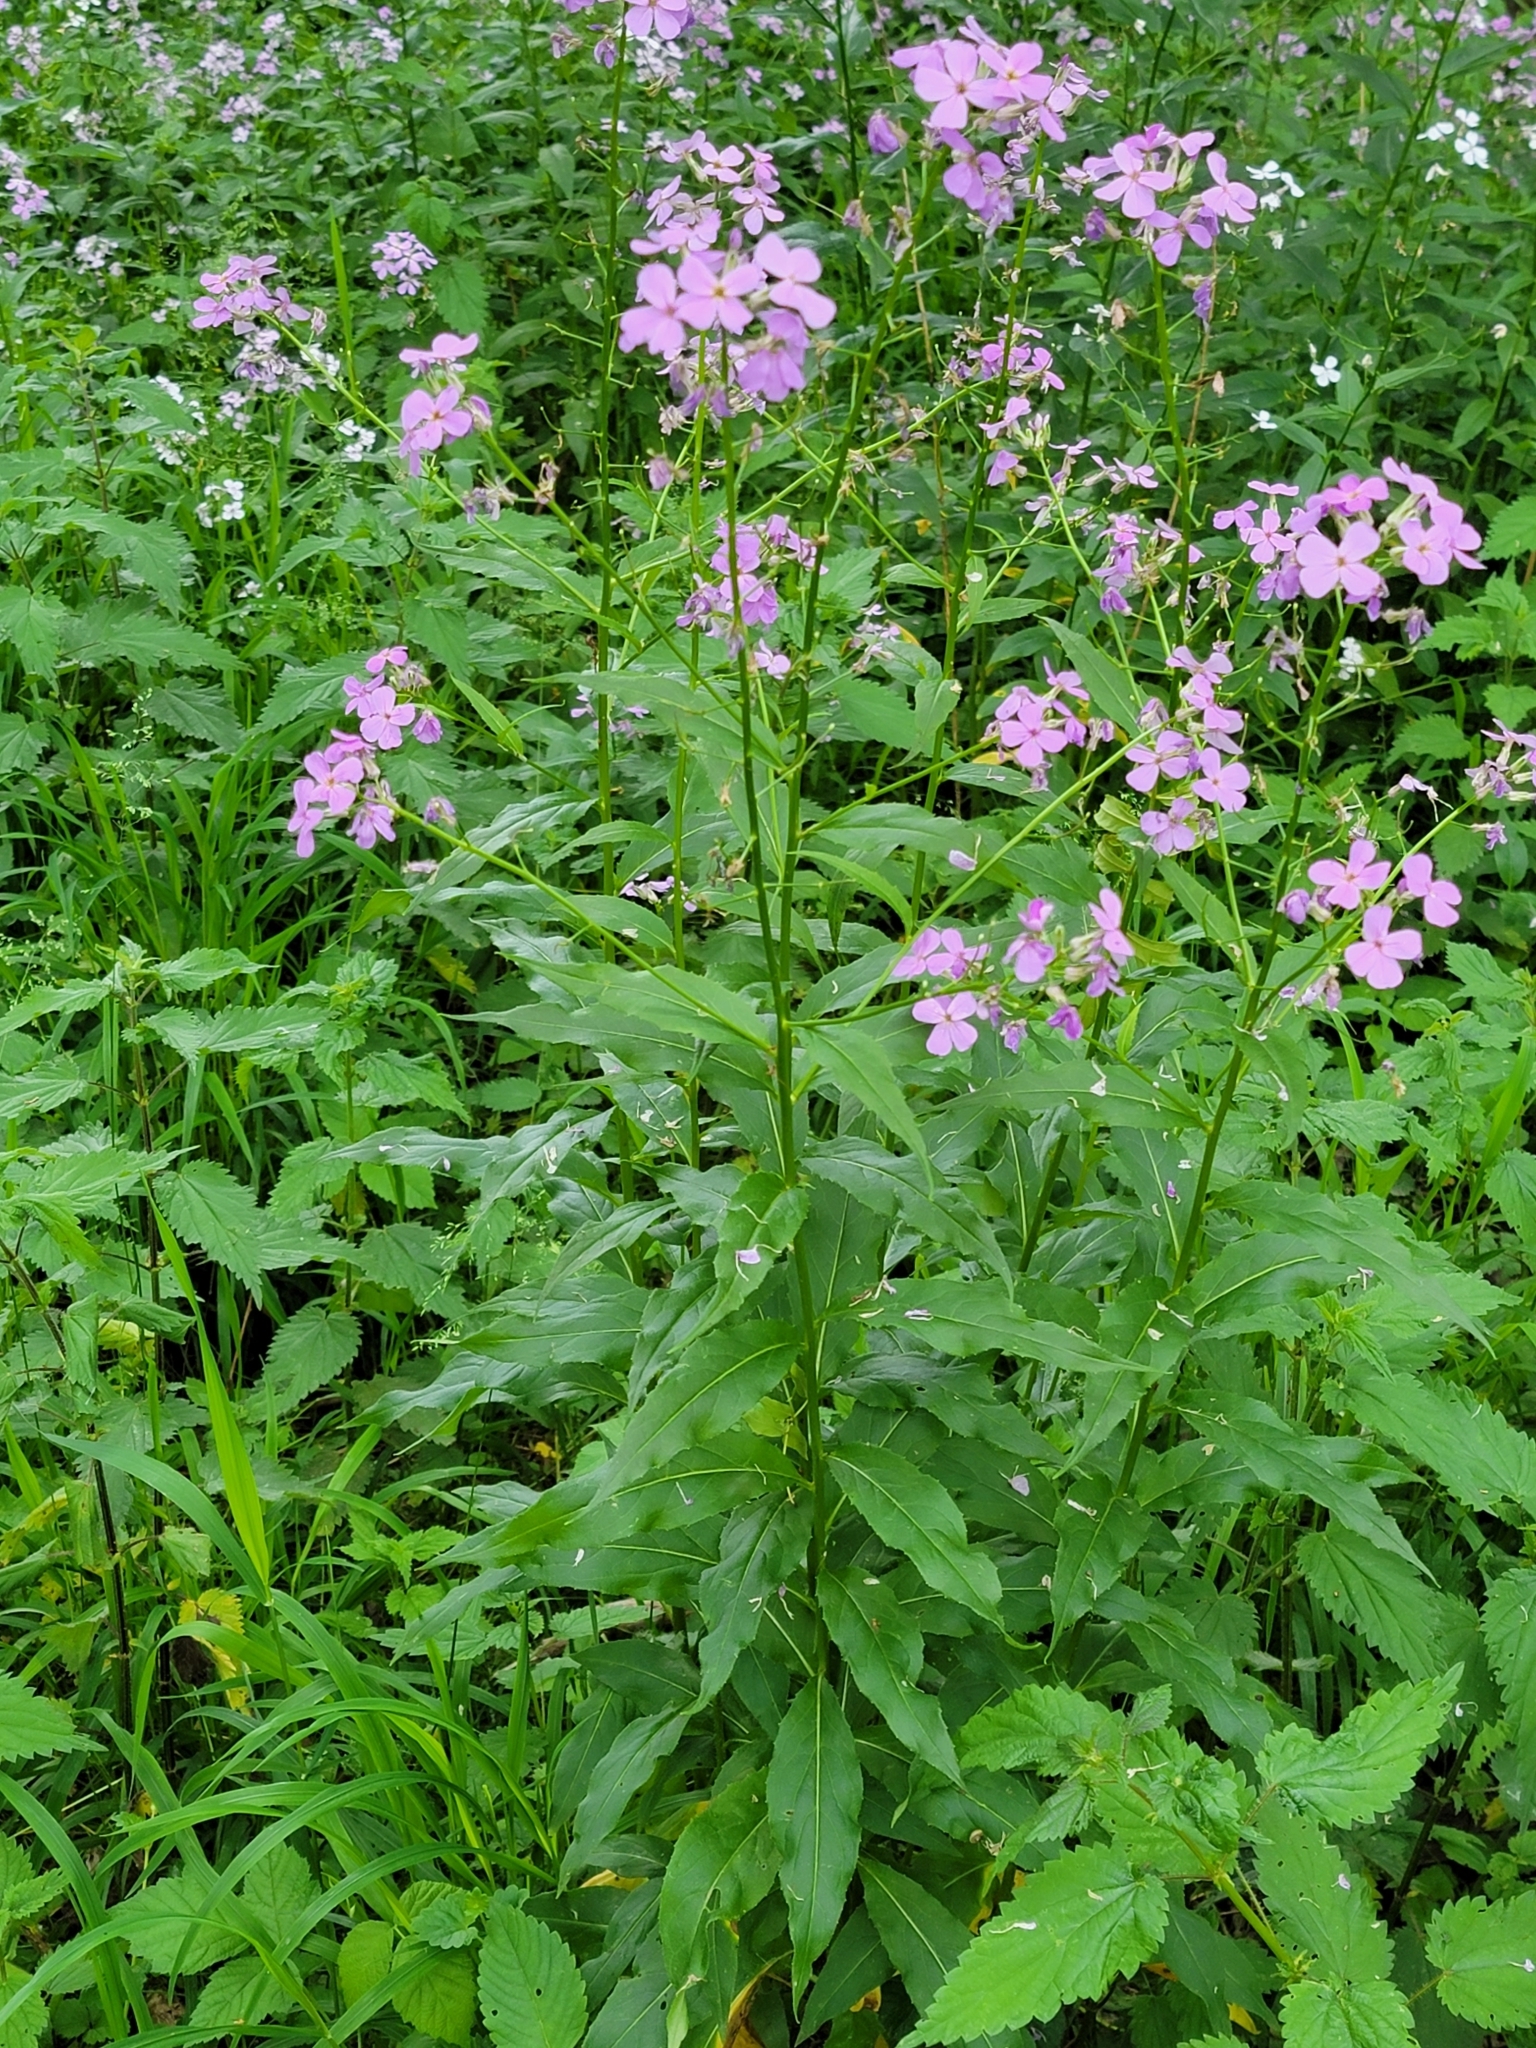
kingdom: Plantae
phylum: Tracheophyta
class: Magnoliopsida
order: Brassicales
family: Brassicaceae
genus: Hesperis
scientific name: Hesperis matronalis
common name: Dame's-violet
